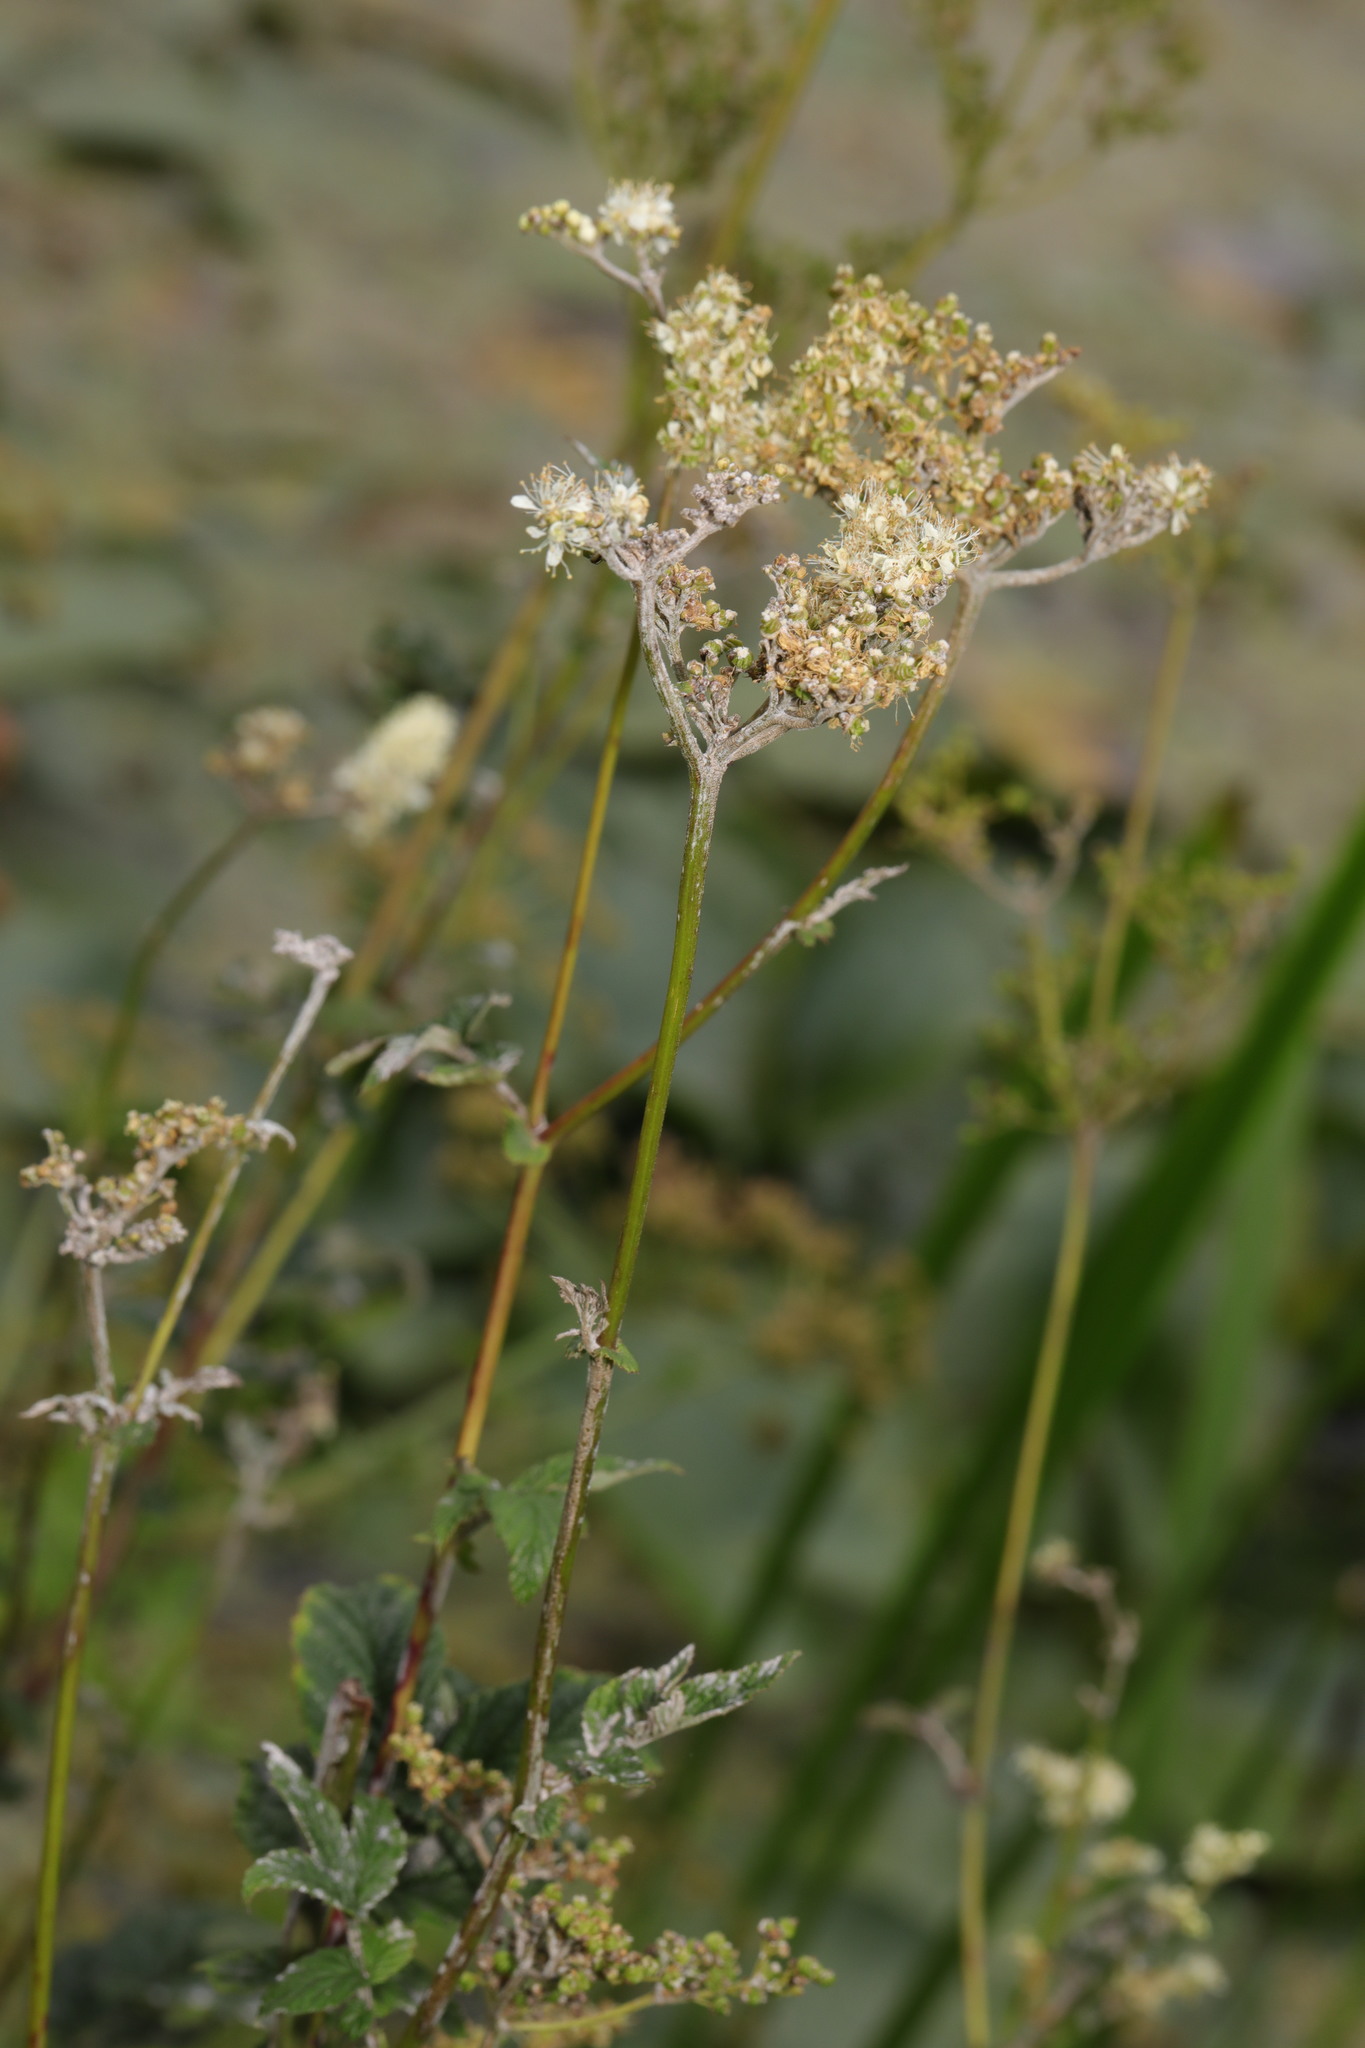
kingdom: Plantae
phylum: Tracheophyta
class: Magnoliopsida
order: Rosales
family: Rosaceae
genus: Filipendula
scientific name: Filipendula ulmaria
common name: Meadowsweet
